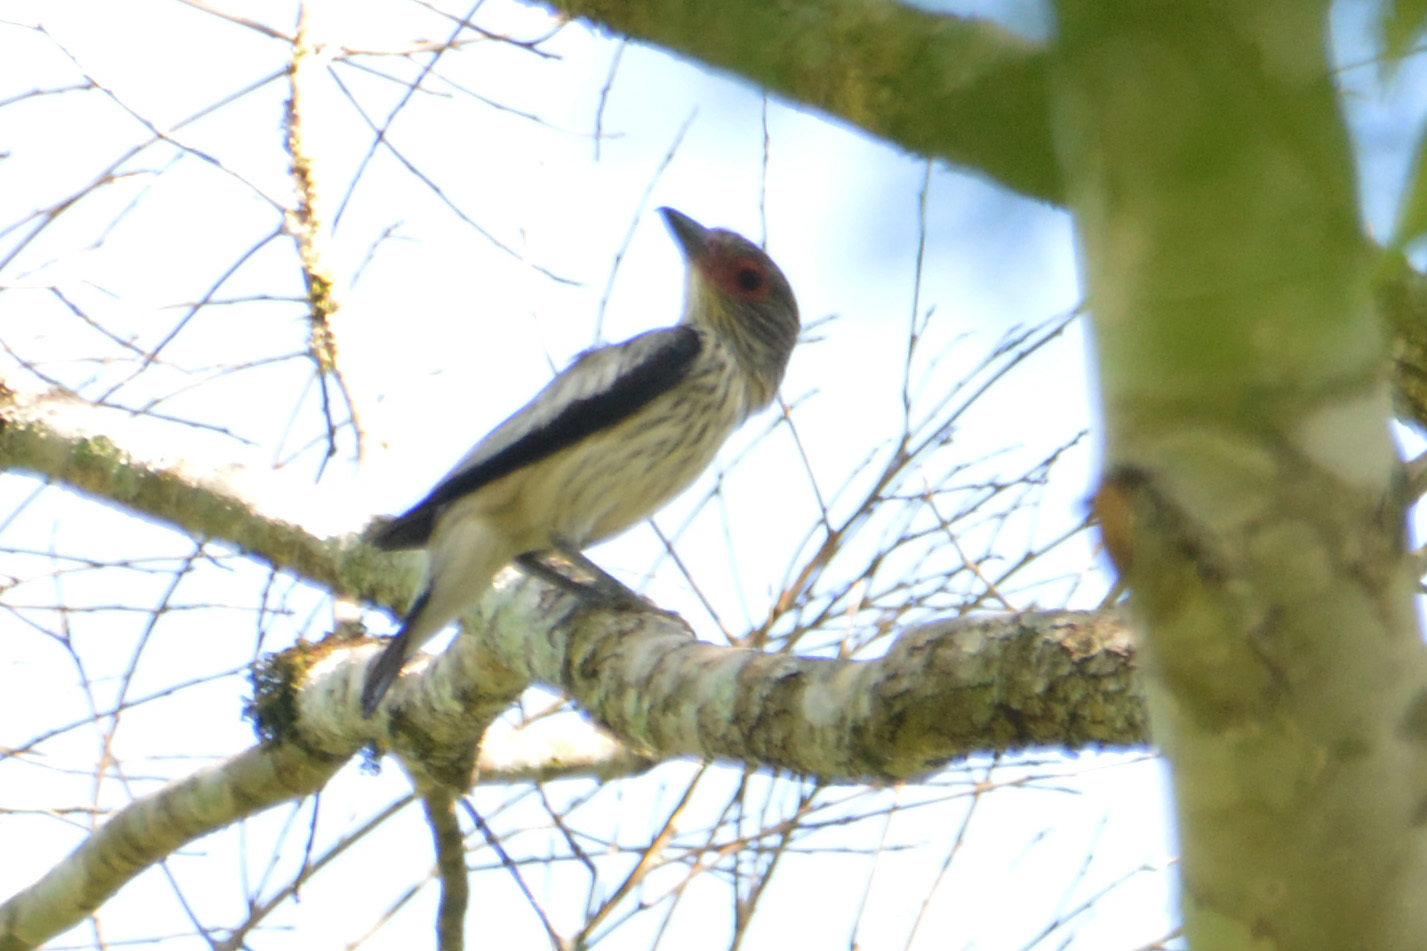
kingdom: Animalia
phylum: Chordata
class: Aves
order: Passeriformes
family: Cotingidae
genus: Tityra
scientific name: Tityra cayana
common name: Black-tailed tityra
